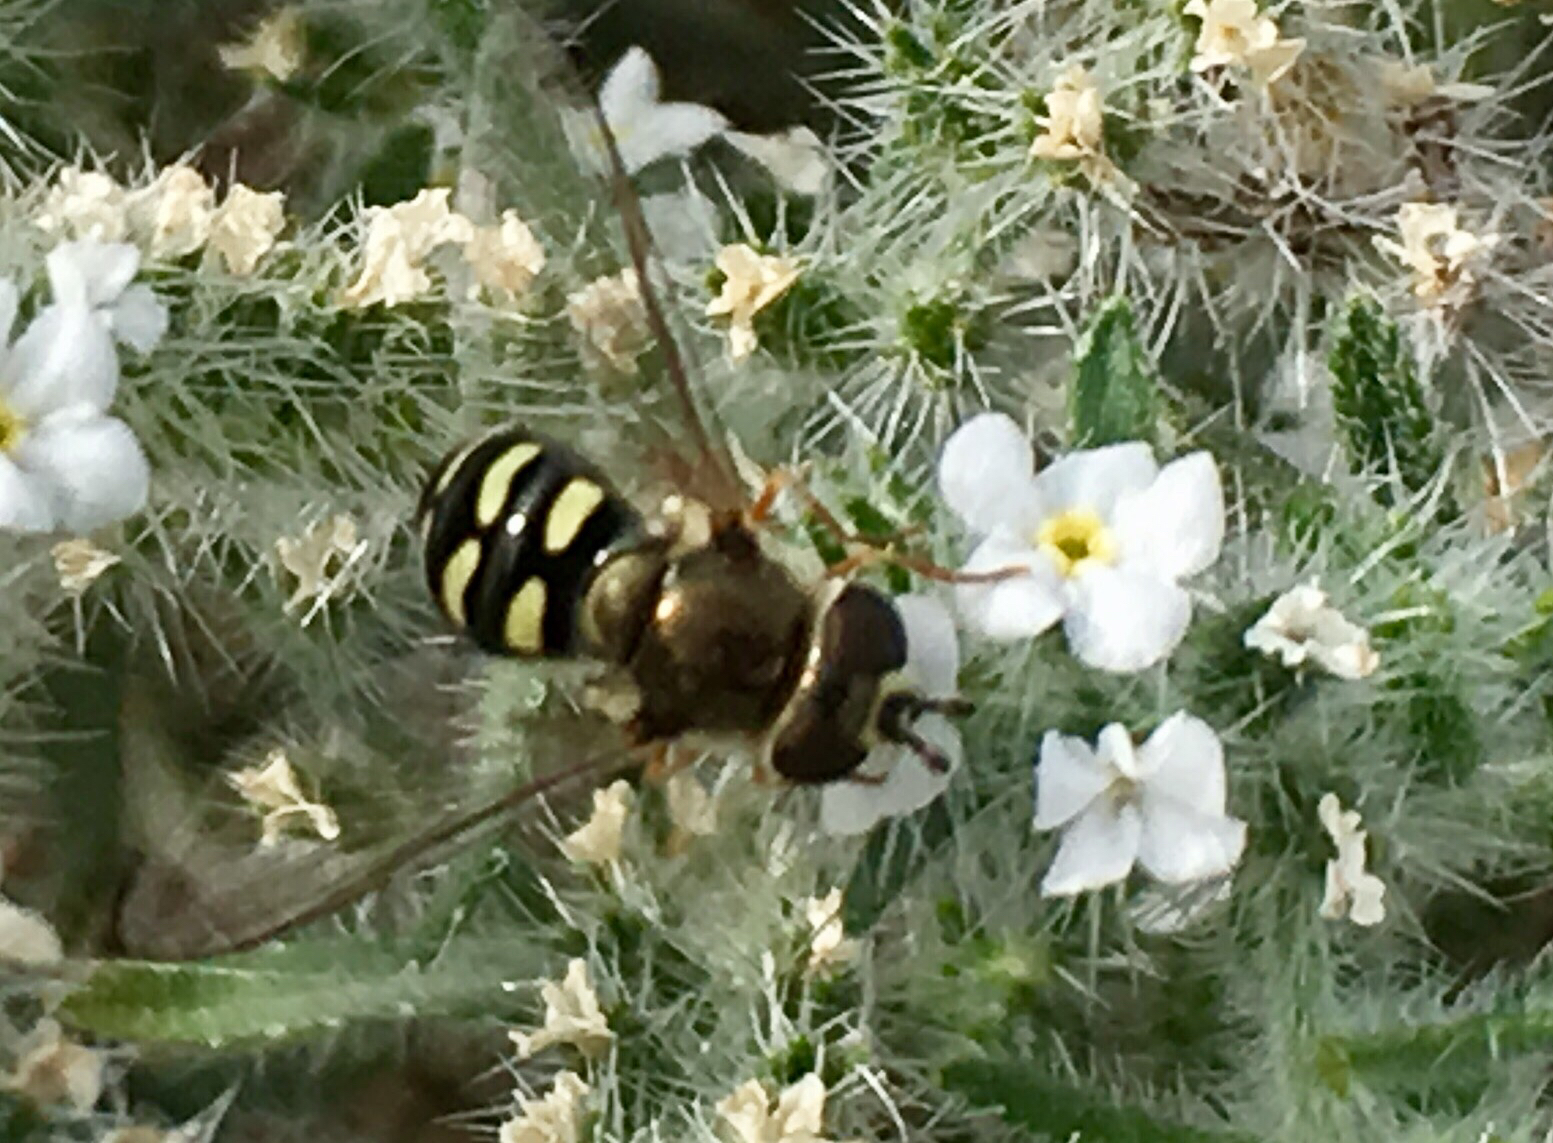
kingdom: Animalia
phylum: Arthropoda
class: Insecta
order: Diptera
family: Syrphidae
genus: Eupeodes
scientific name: Eupeodes volucris
